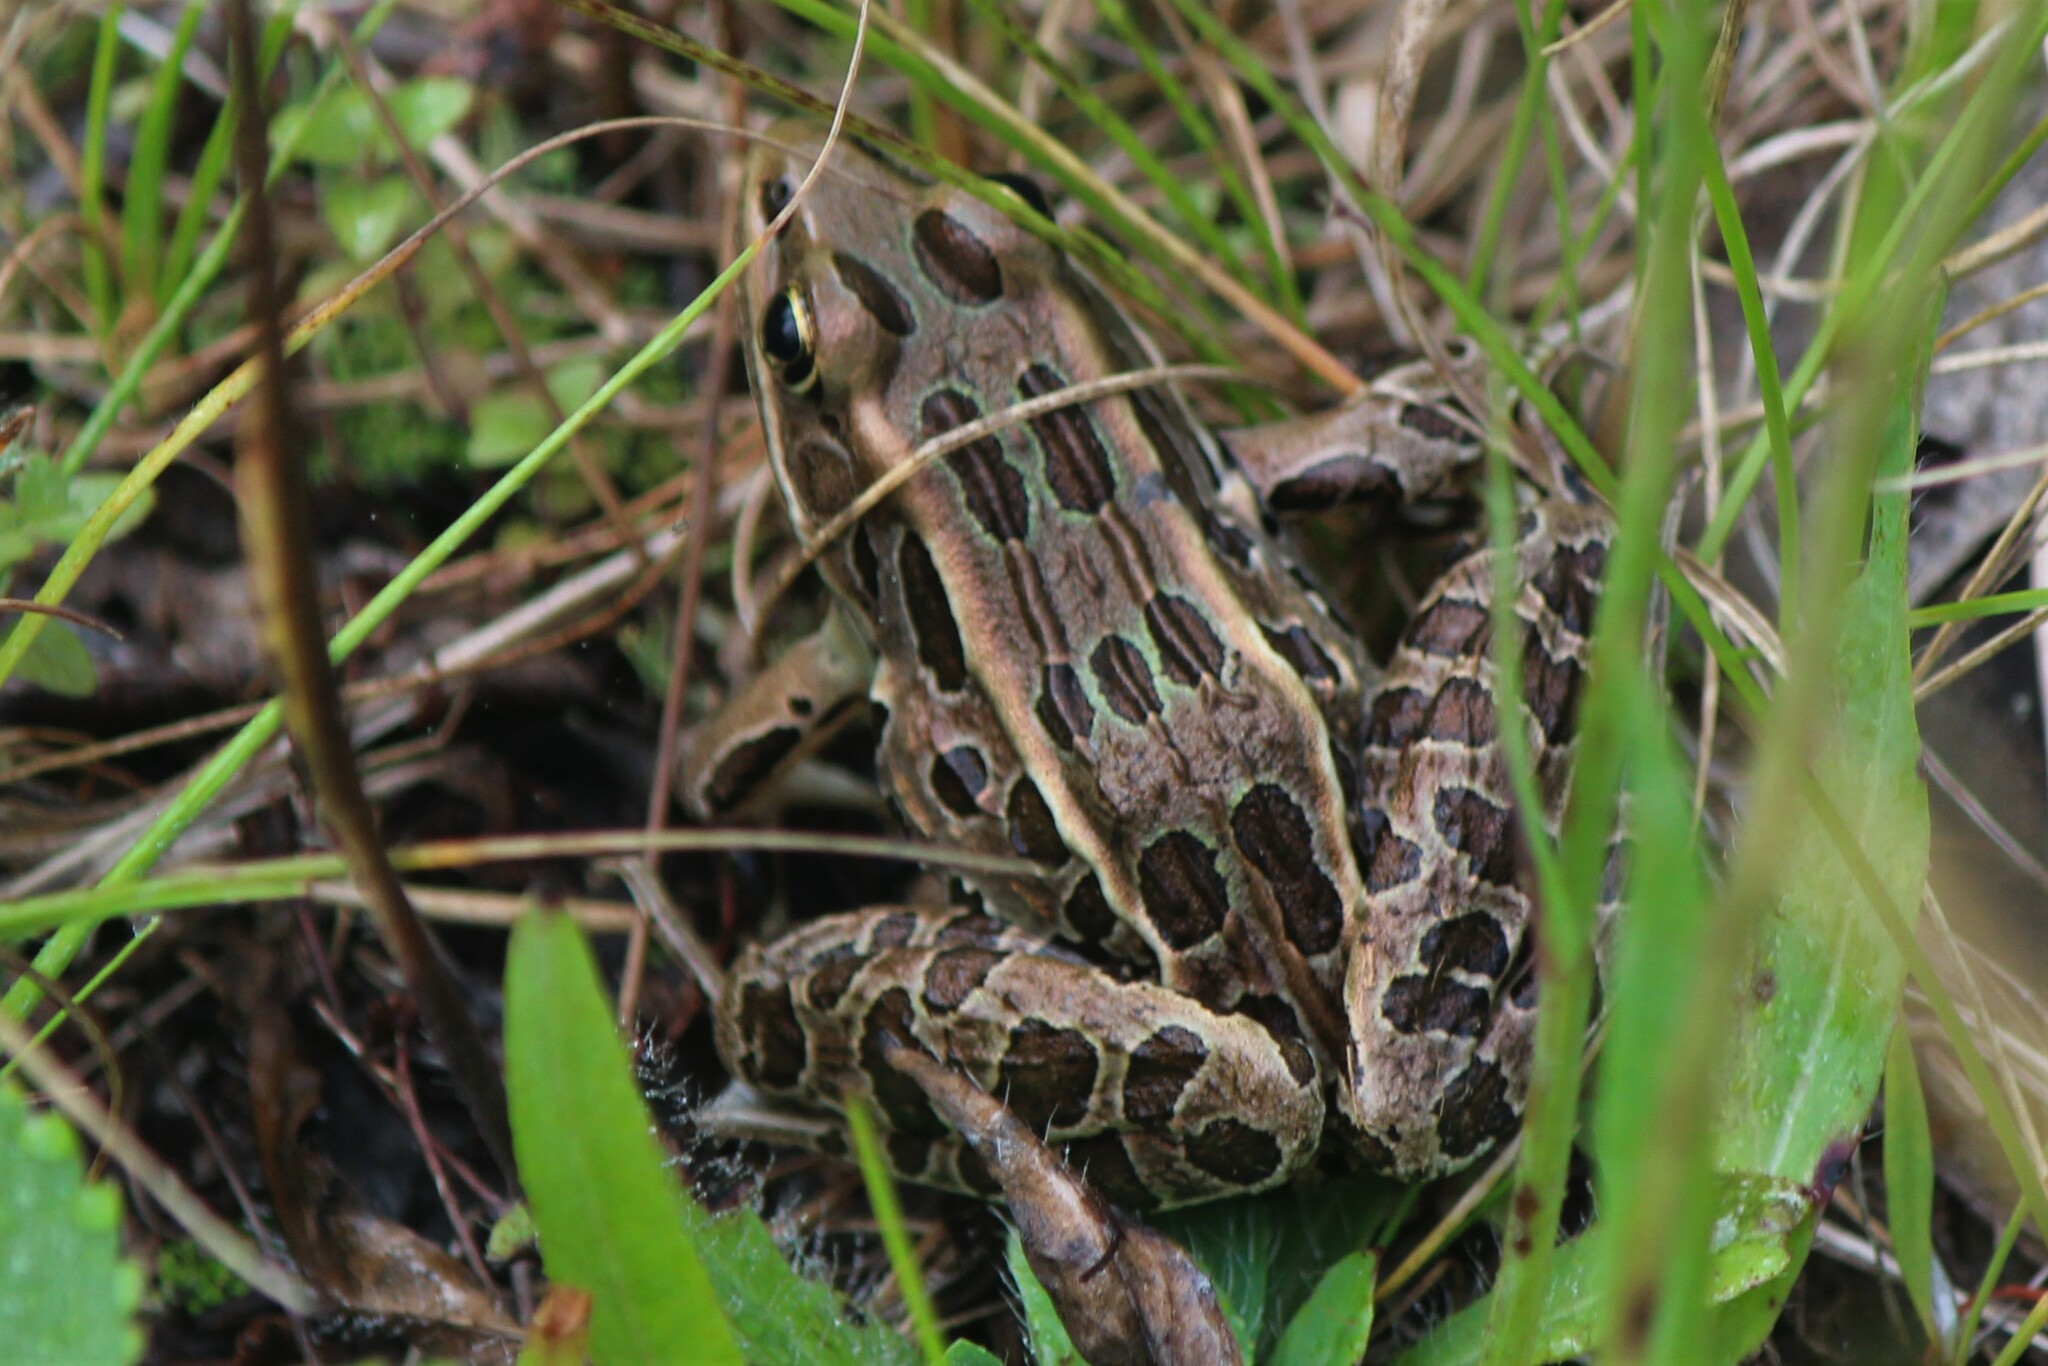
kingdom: Animalia
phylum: Chordata
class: Amphibia
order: Anura
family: Ranidae
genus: Lithobates
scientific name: Lithobates pipiens
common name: Northern leopard frog
